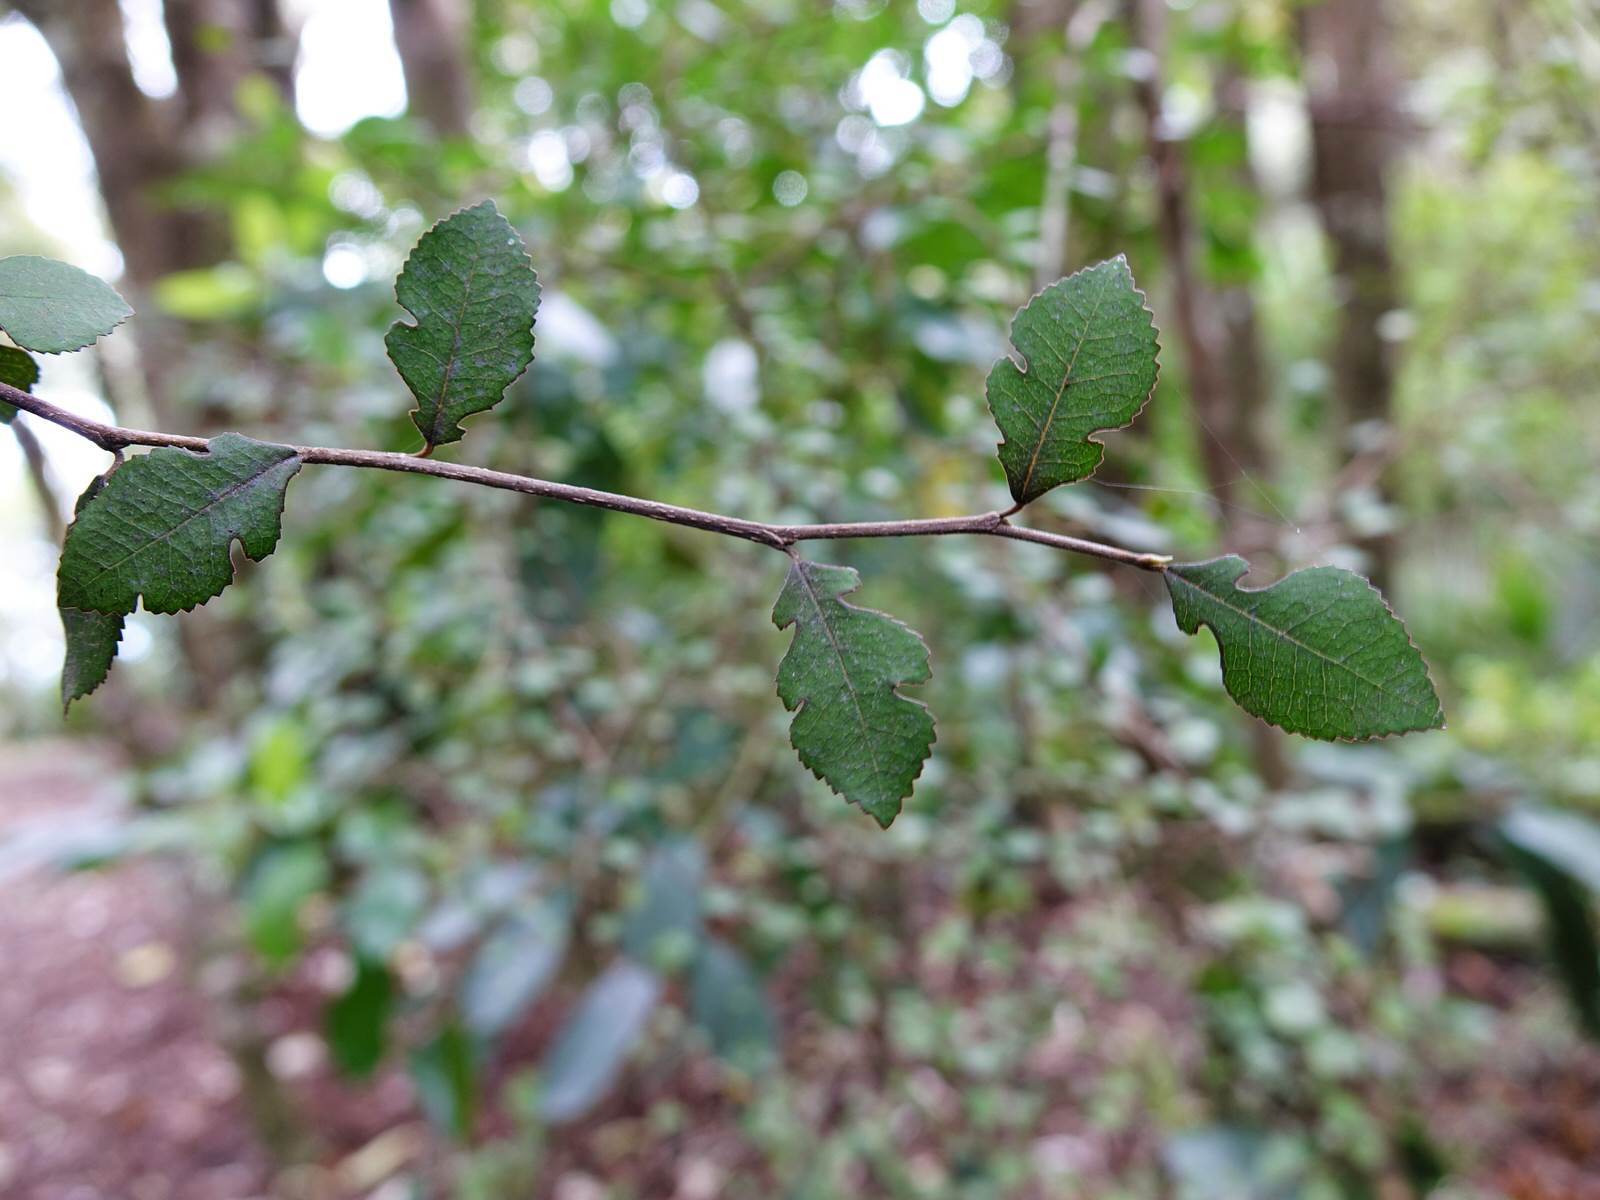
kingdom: Plantae
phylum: Tracheophyta
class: Magnoliopsida
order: Rosales
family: Moraceae
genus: Paratrophis
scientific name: Paratrophis microphylla
